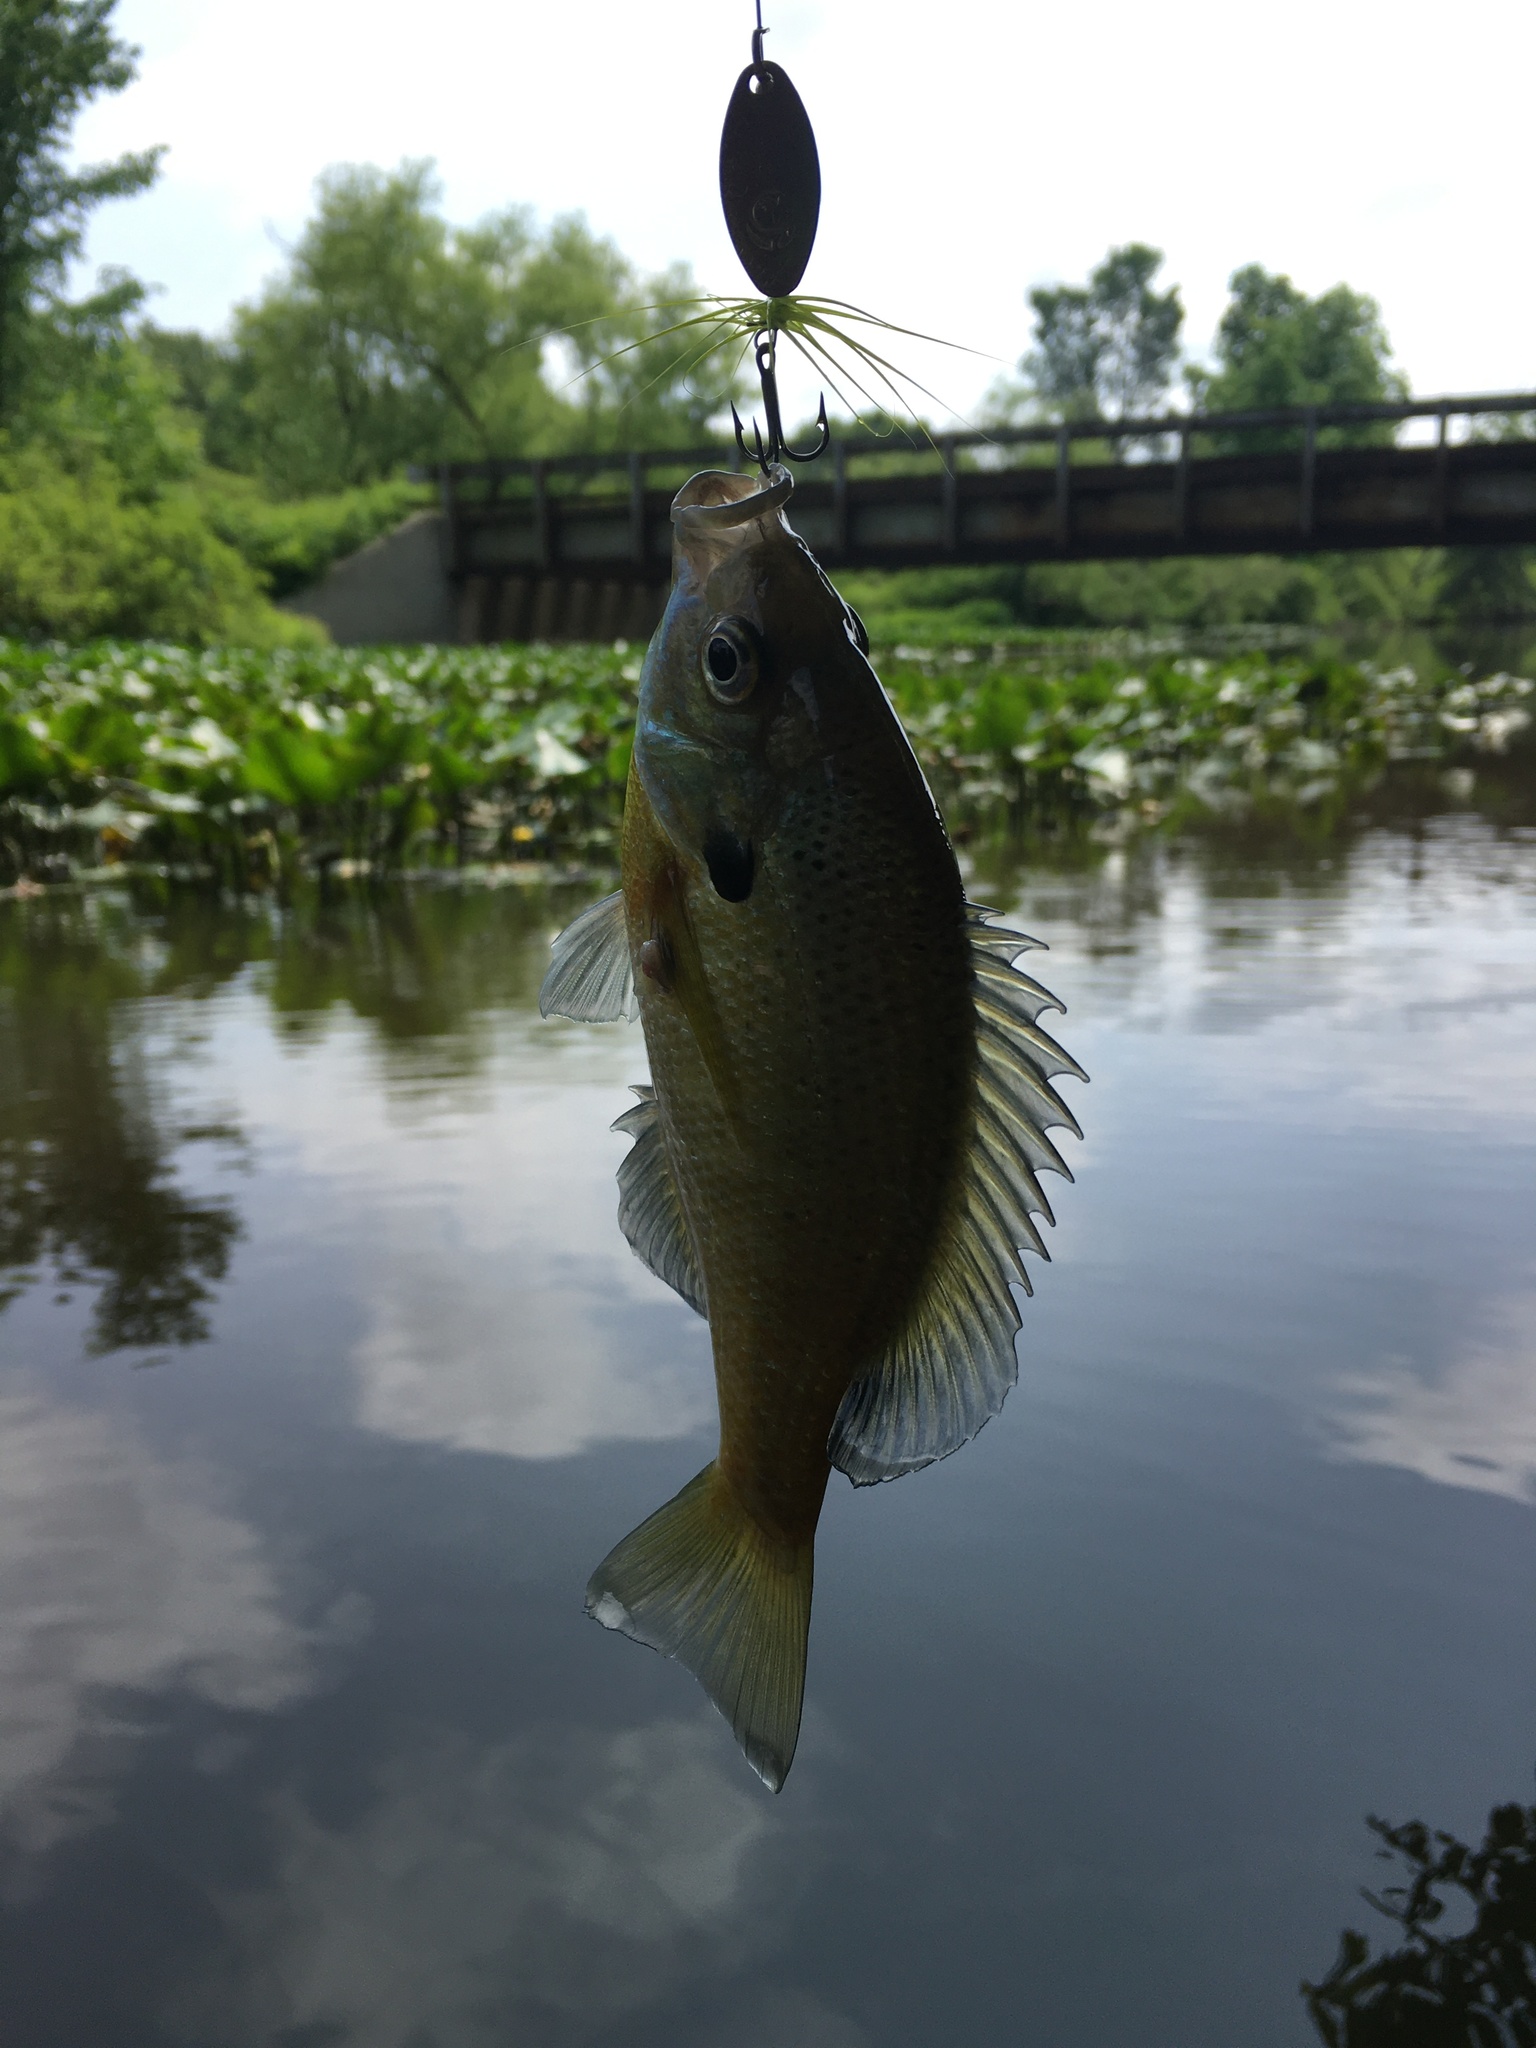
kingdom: Animalia
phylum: Chordata
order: Perciformes
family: Centrarchidae
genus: Lepomis
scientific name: Lepomis macrochirus
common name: Bluegill
